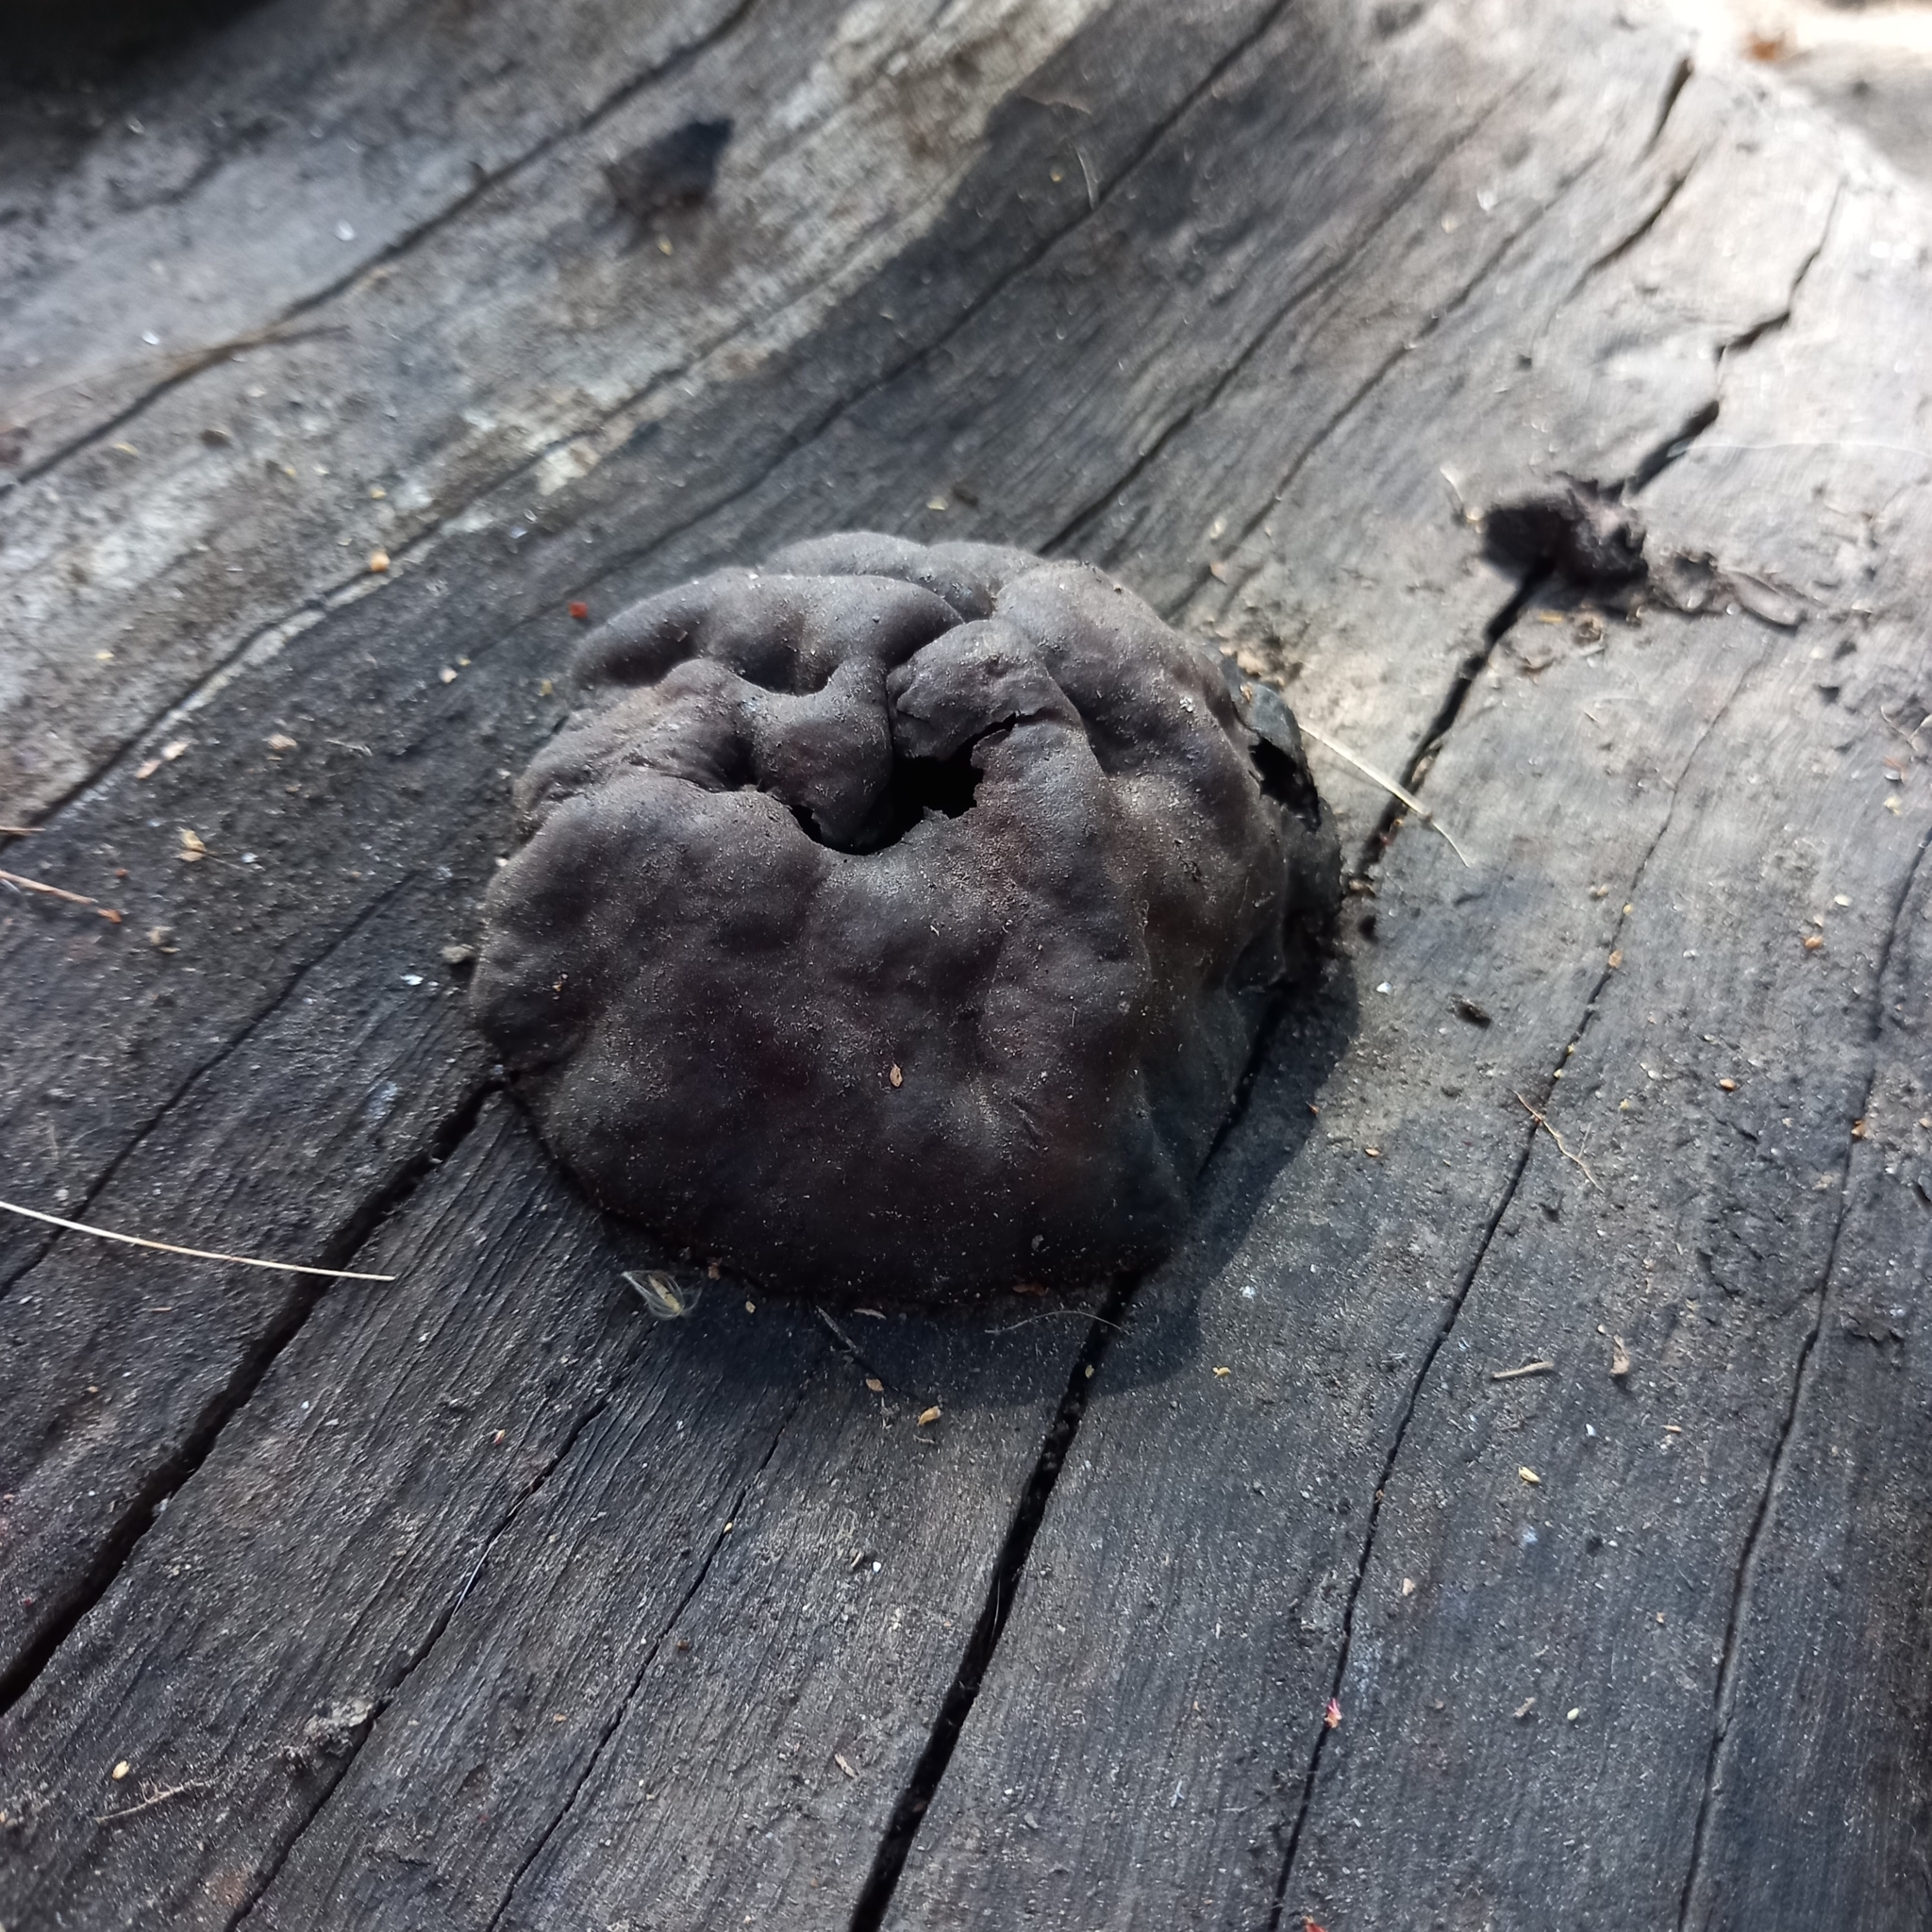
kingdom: Fungi
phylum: Ascomycota
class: Sordariomycetes
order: Xylariales
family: Hypoxylaceae
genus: Daldinia
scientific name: Daldinia childiae
